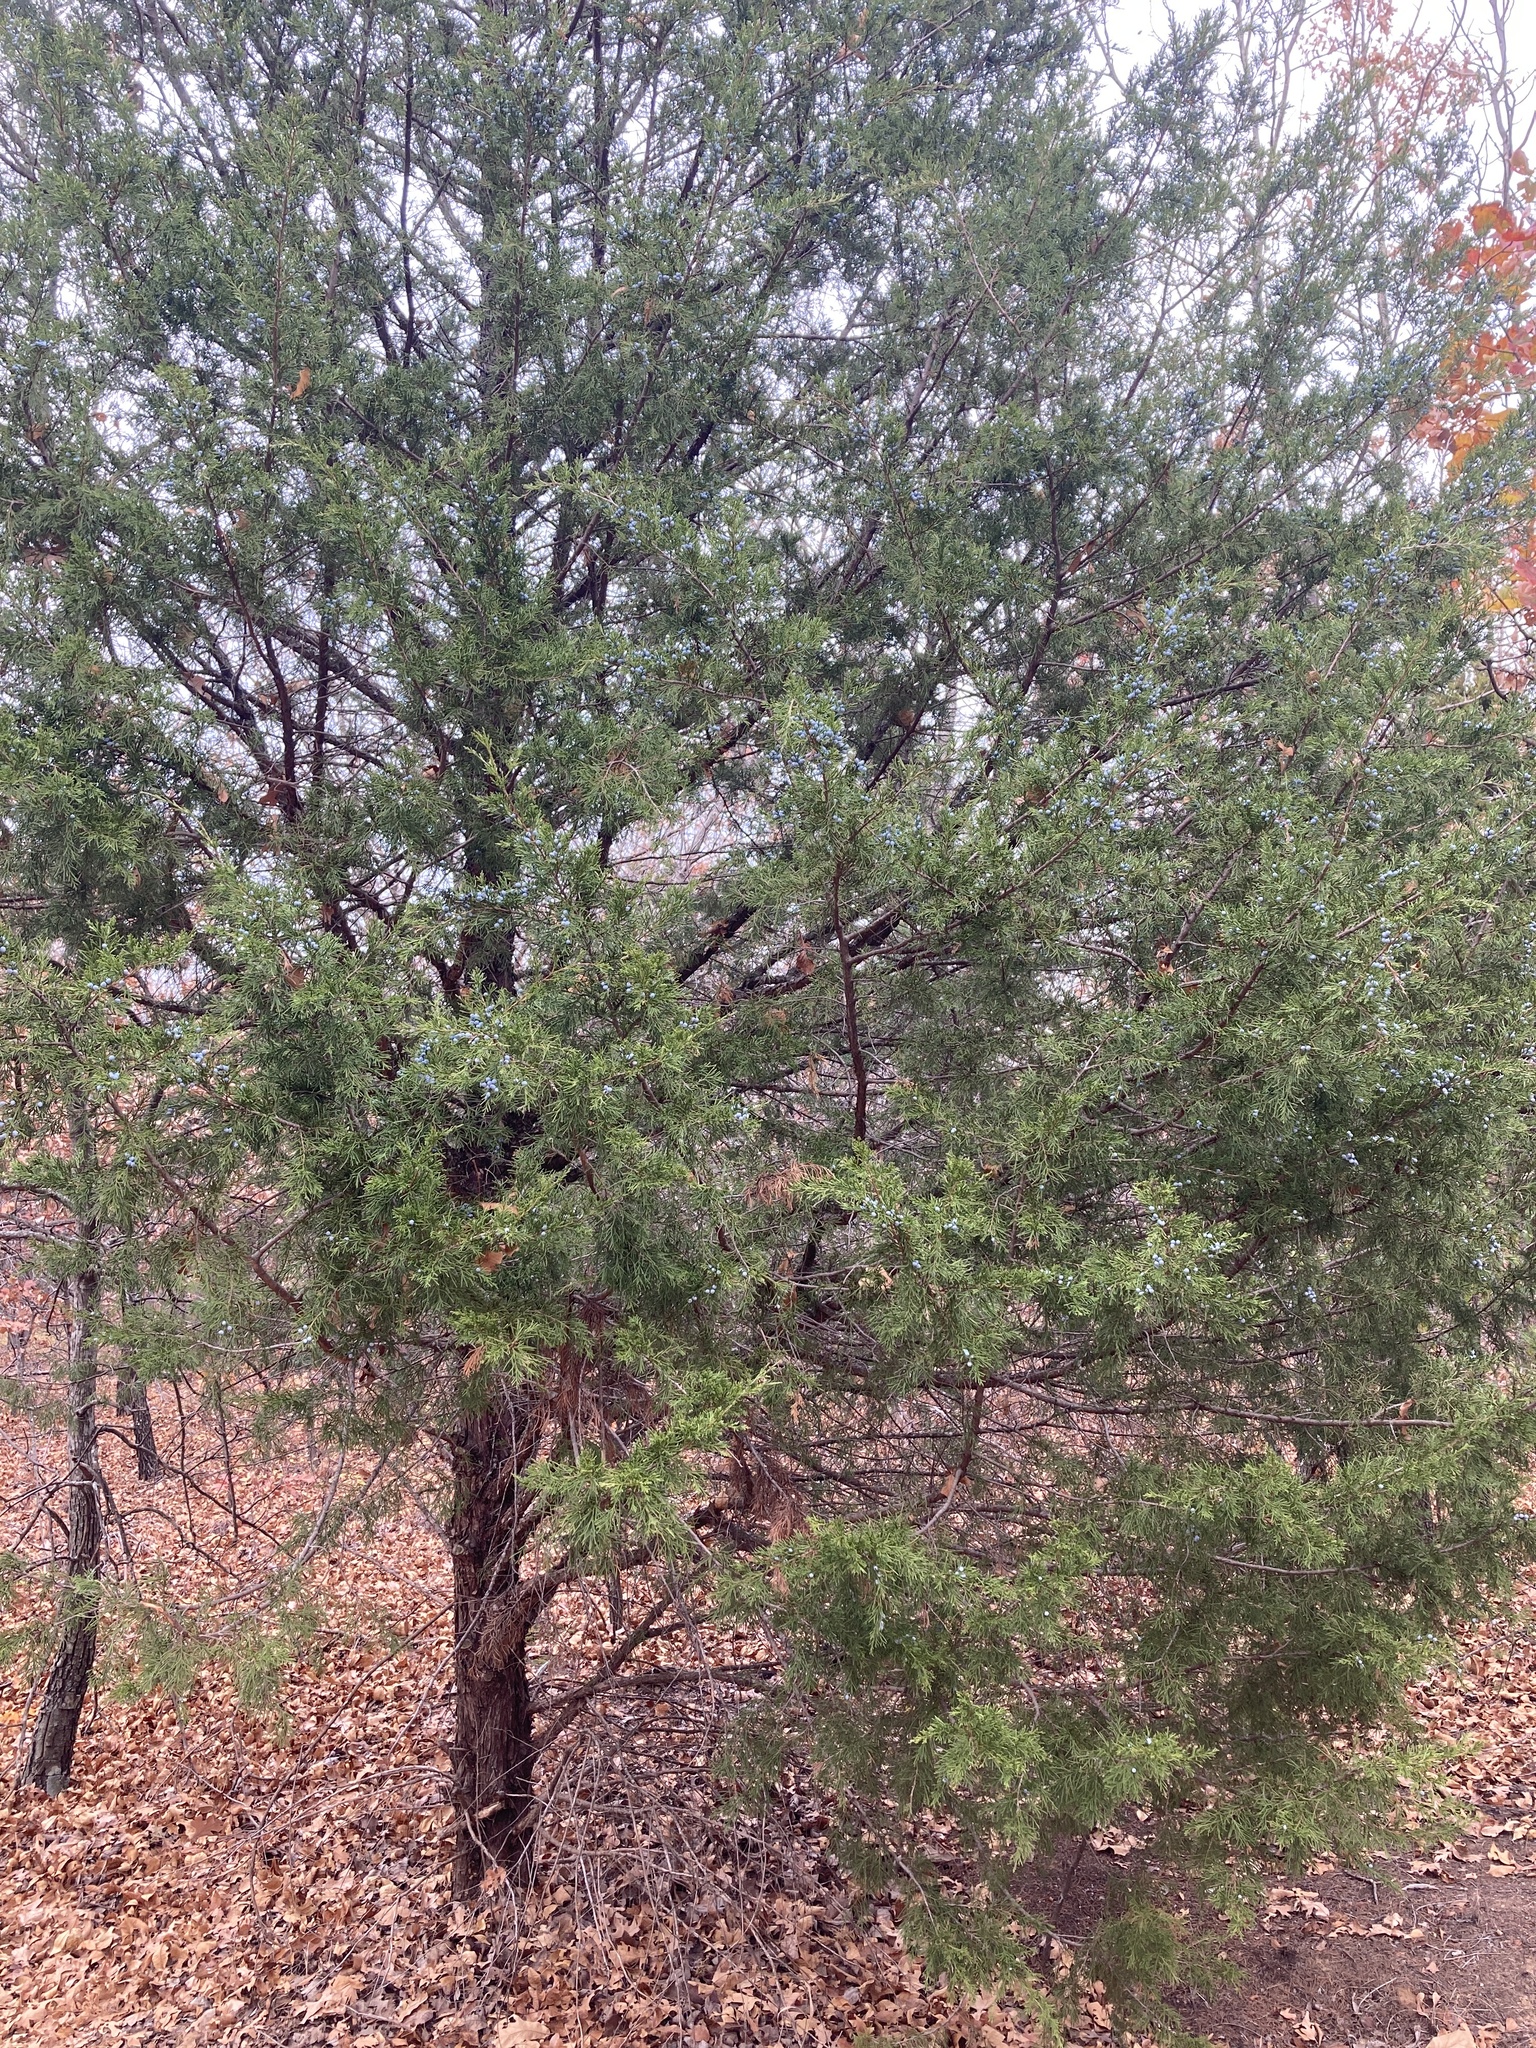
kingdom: Plantae
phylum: Tracheophyta
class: Pinopsida
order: Pinales
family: Cupressaceae
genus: Juniperus
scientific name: Juniperus virginiana
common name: Red juniper
